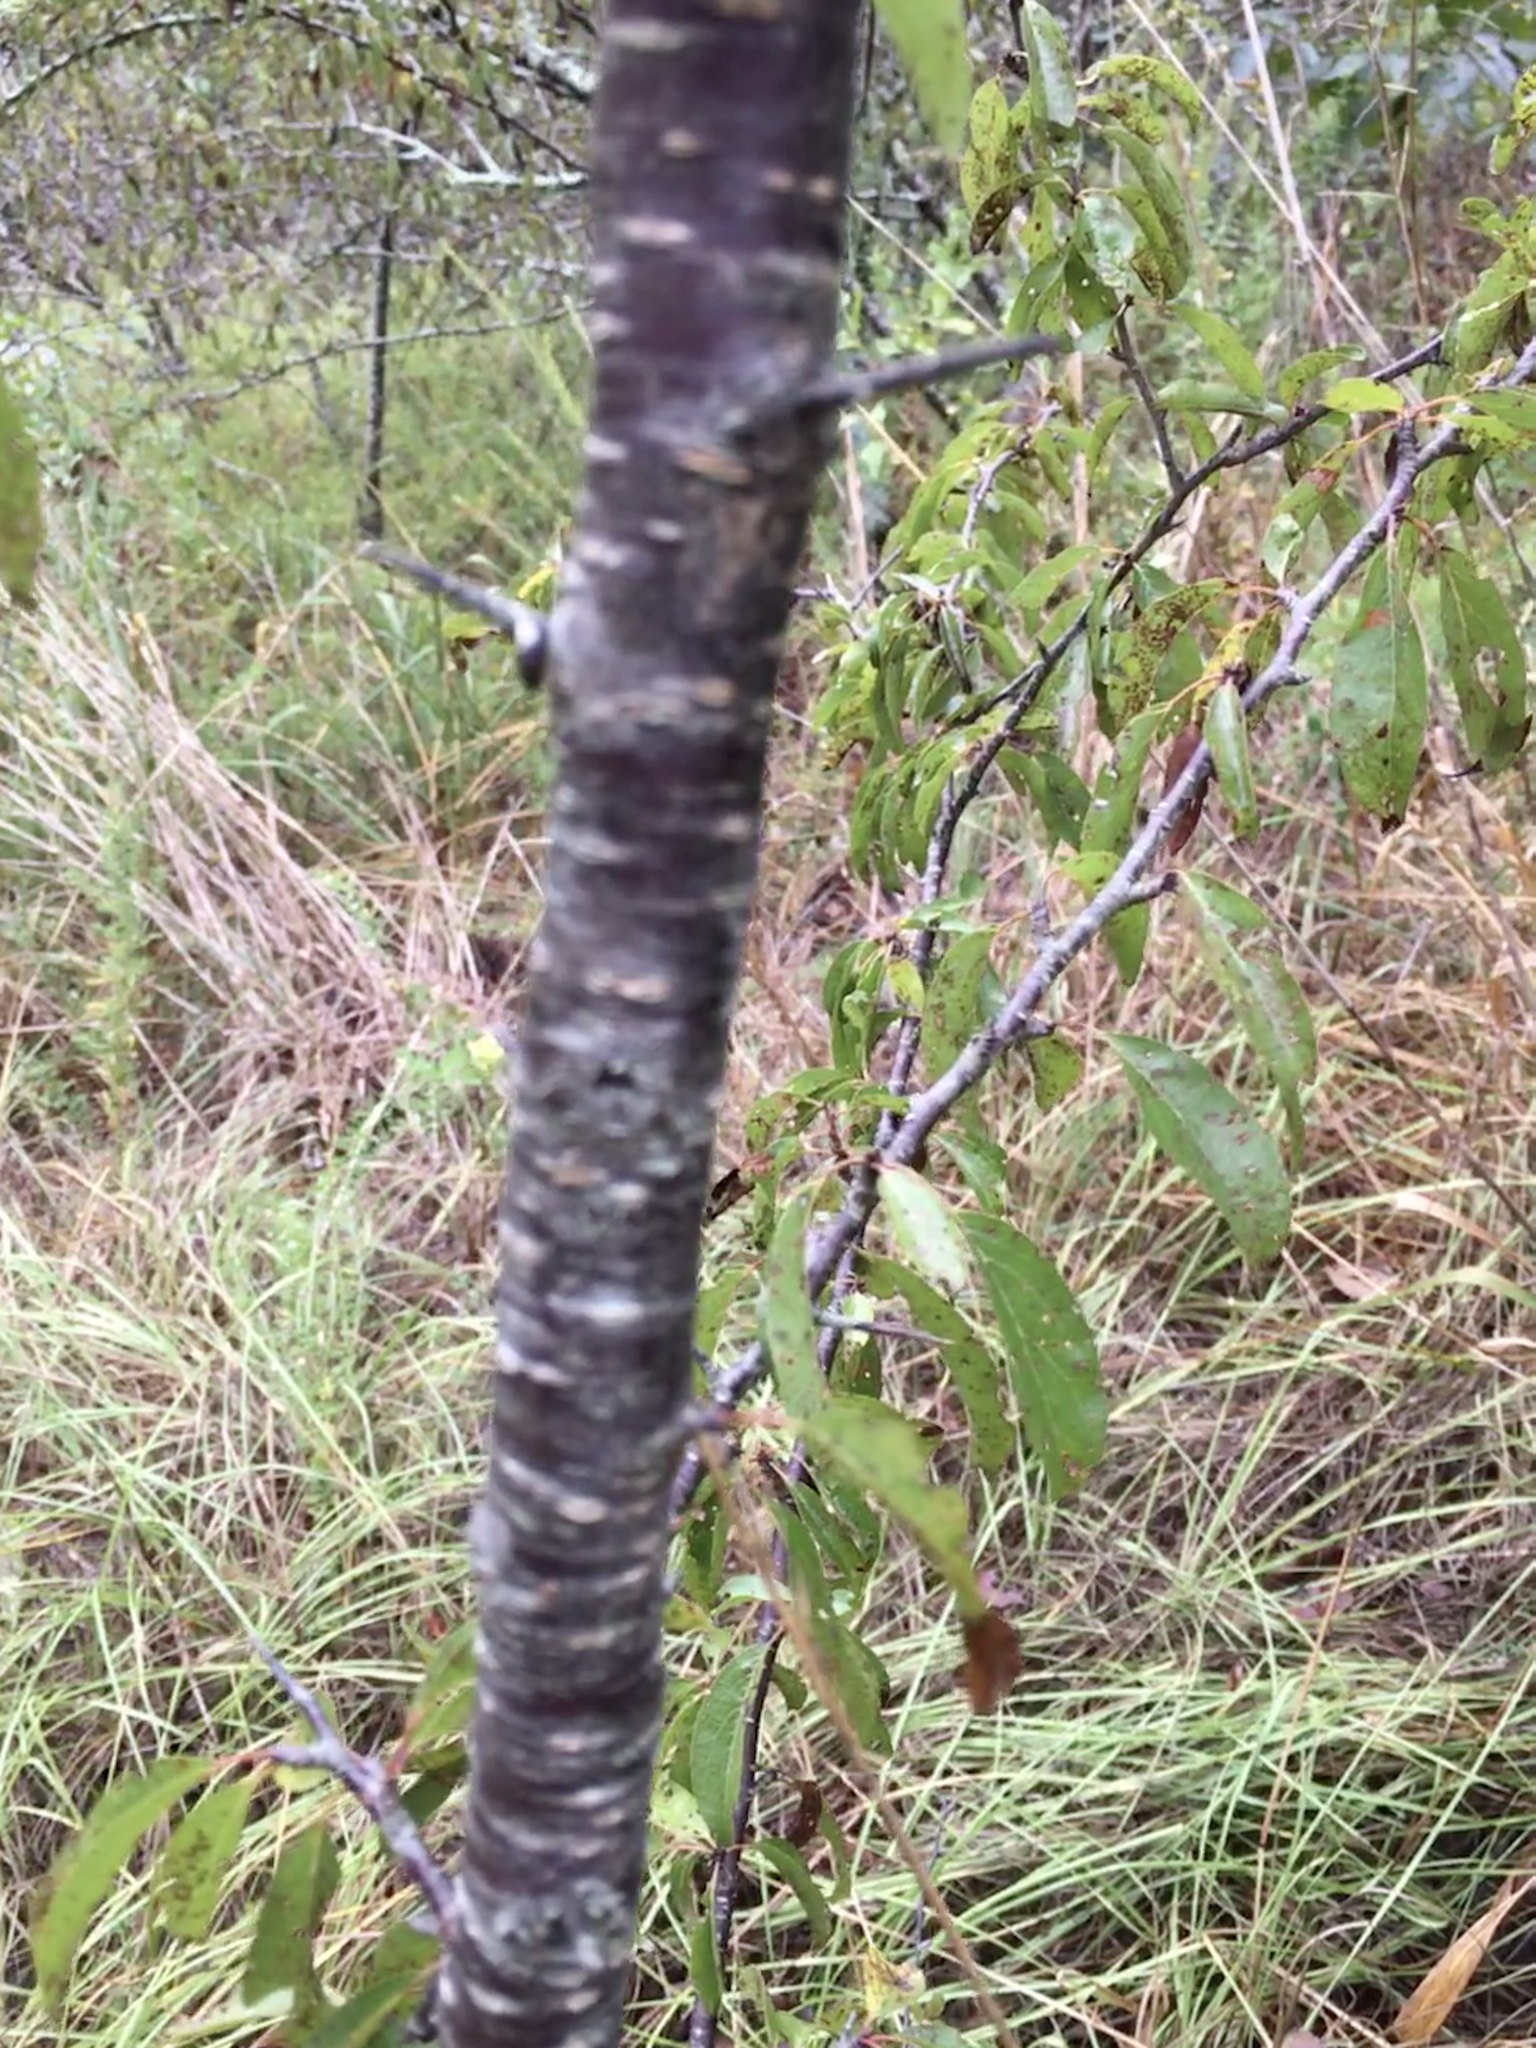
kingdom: Plantae
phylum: Tracheophyta
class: Magnoliopsida
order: Rosales
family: Rosaceae
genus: Prunus
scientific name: Prunus angustifolia
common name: Cherokee plum
